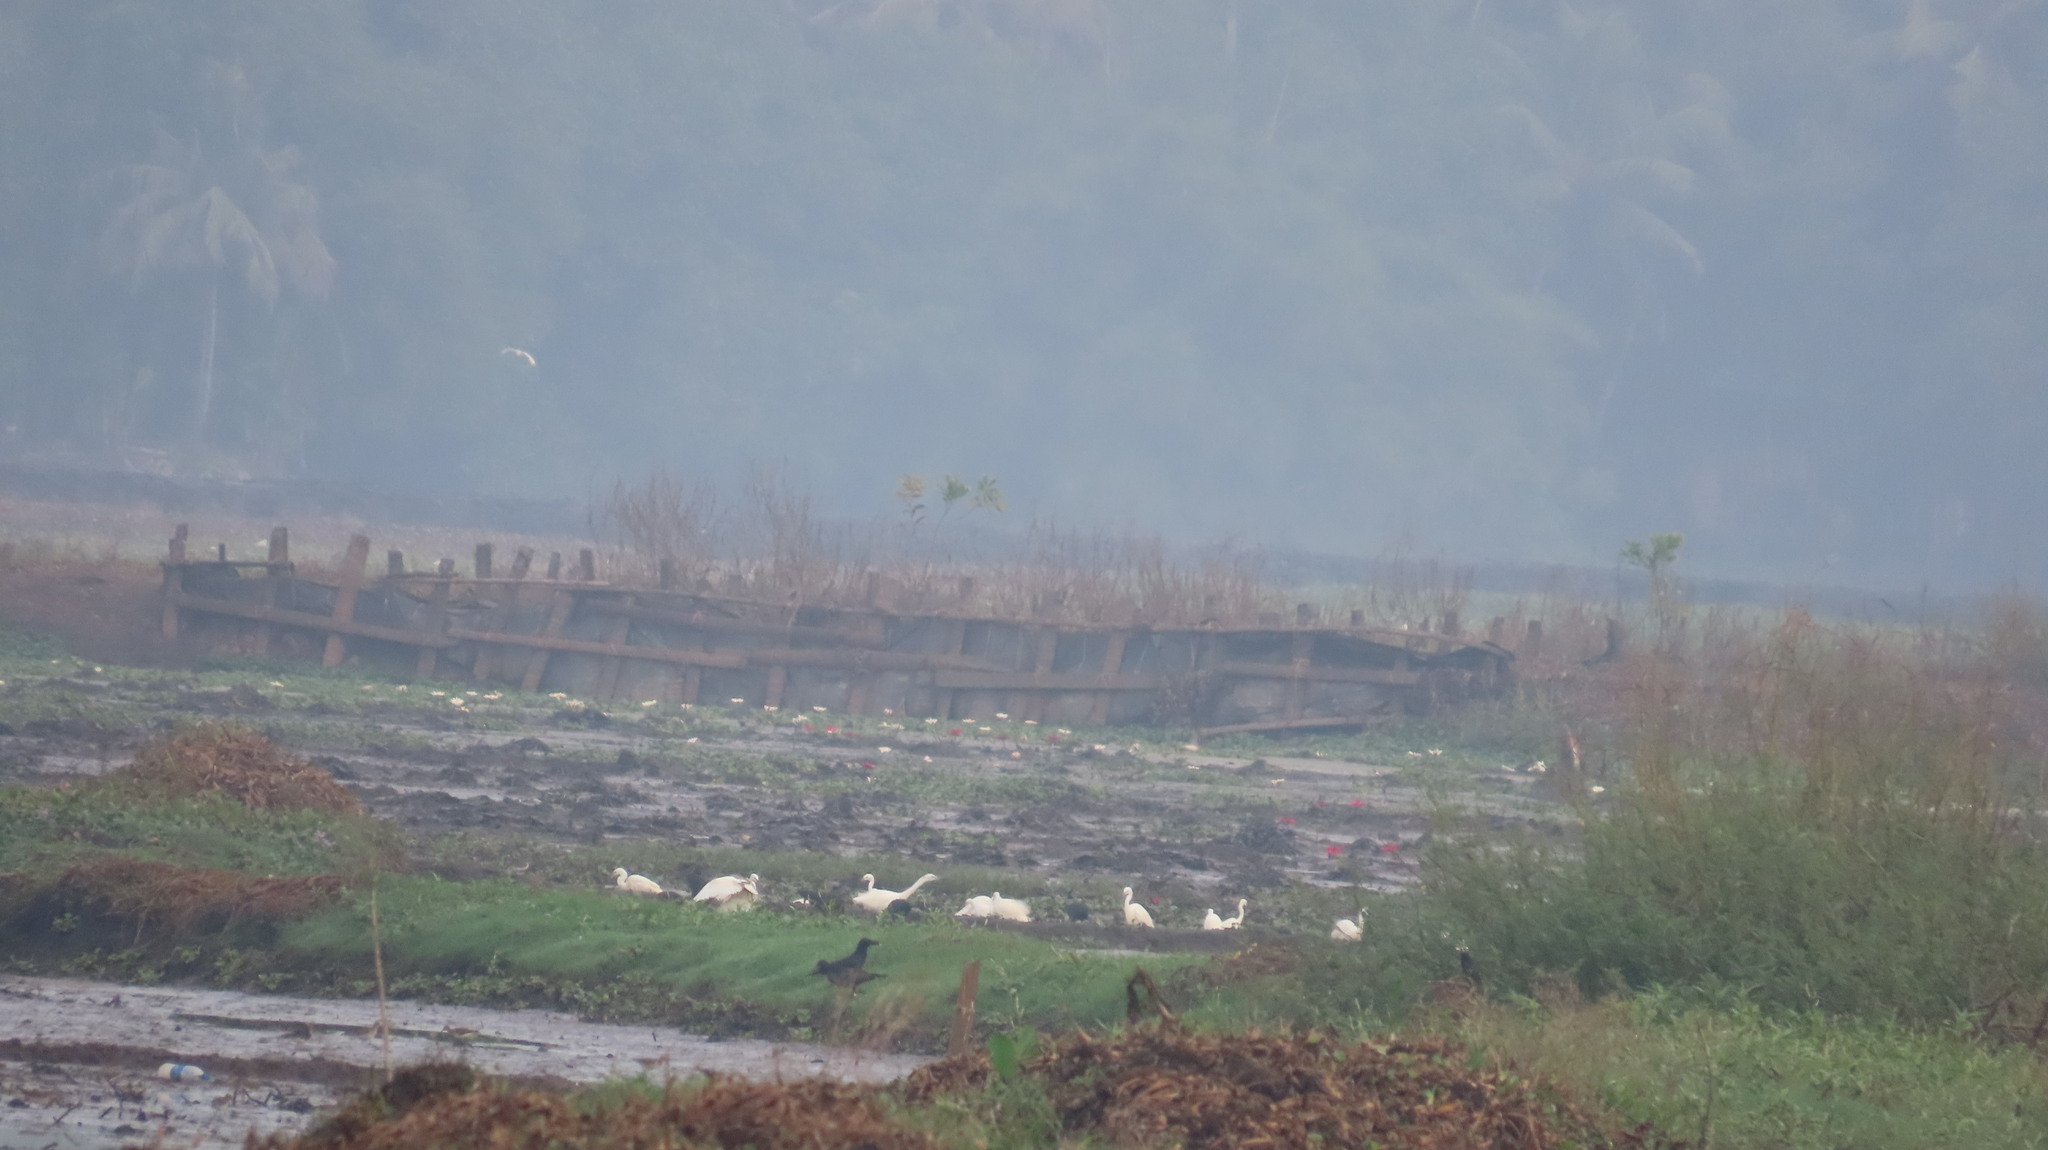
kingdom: Animalia
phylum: Chordata
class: Aves
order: Pelecaniformes
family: Ardeidae
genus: Egretta
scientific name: Egretta intermedia
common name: Intermediate egret
